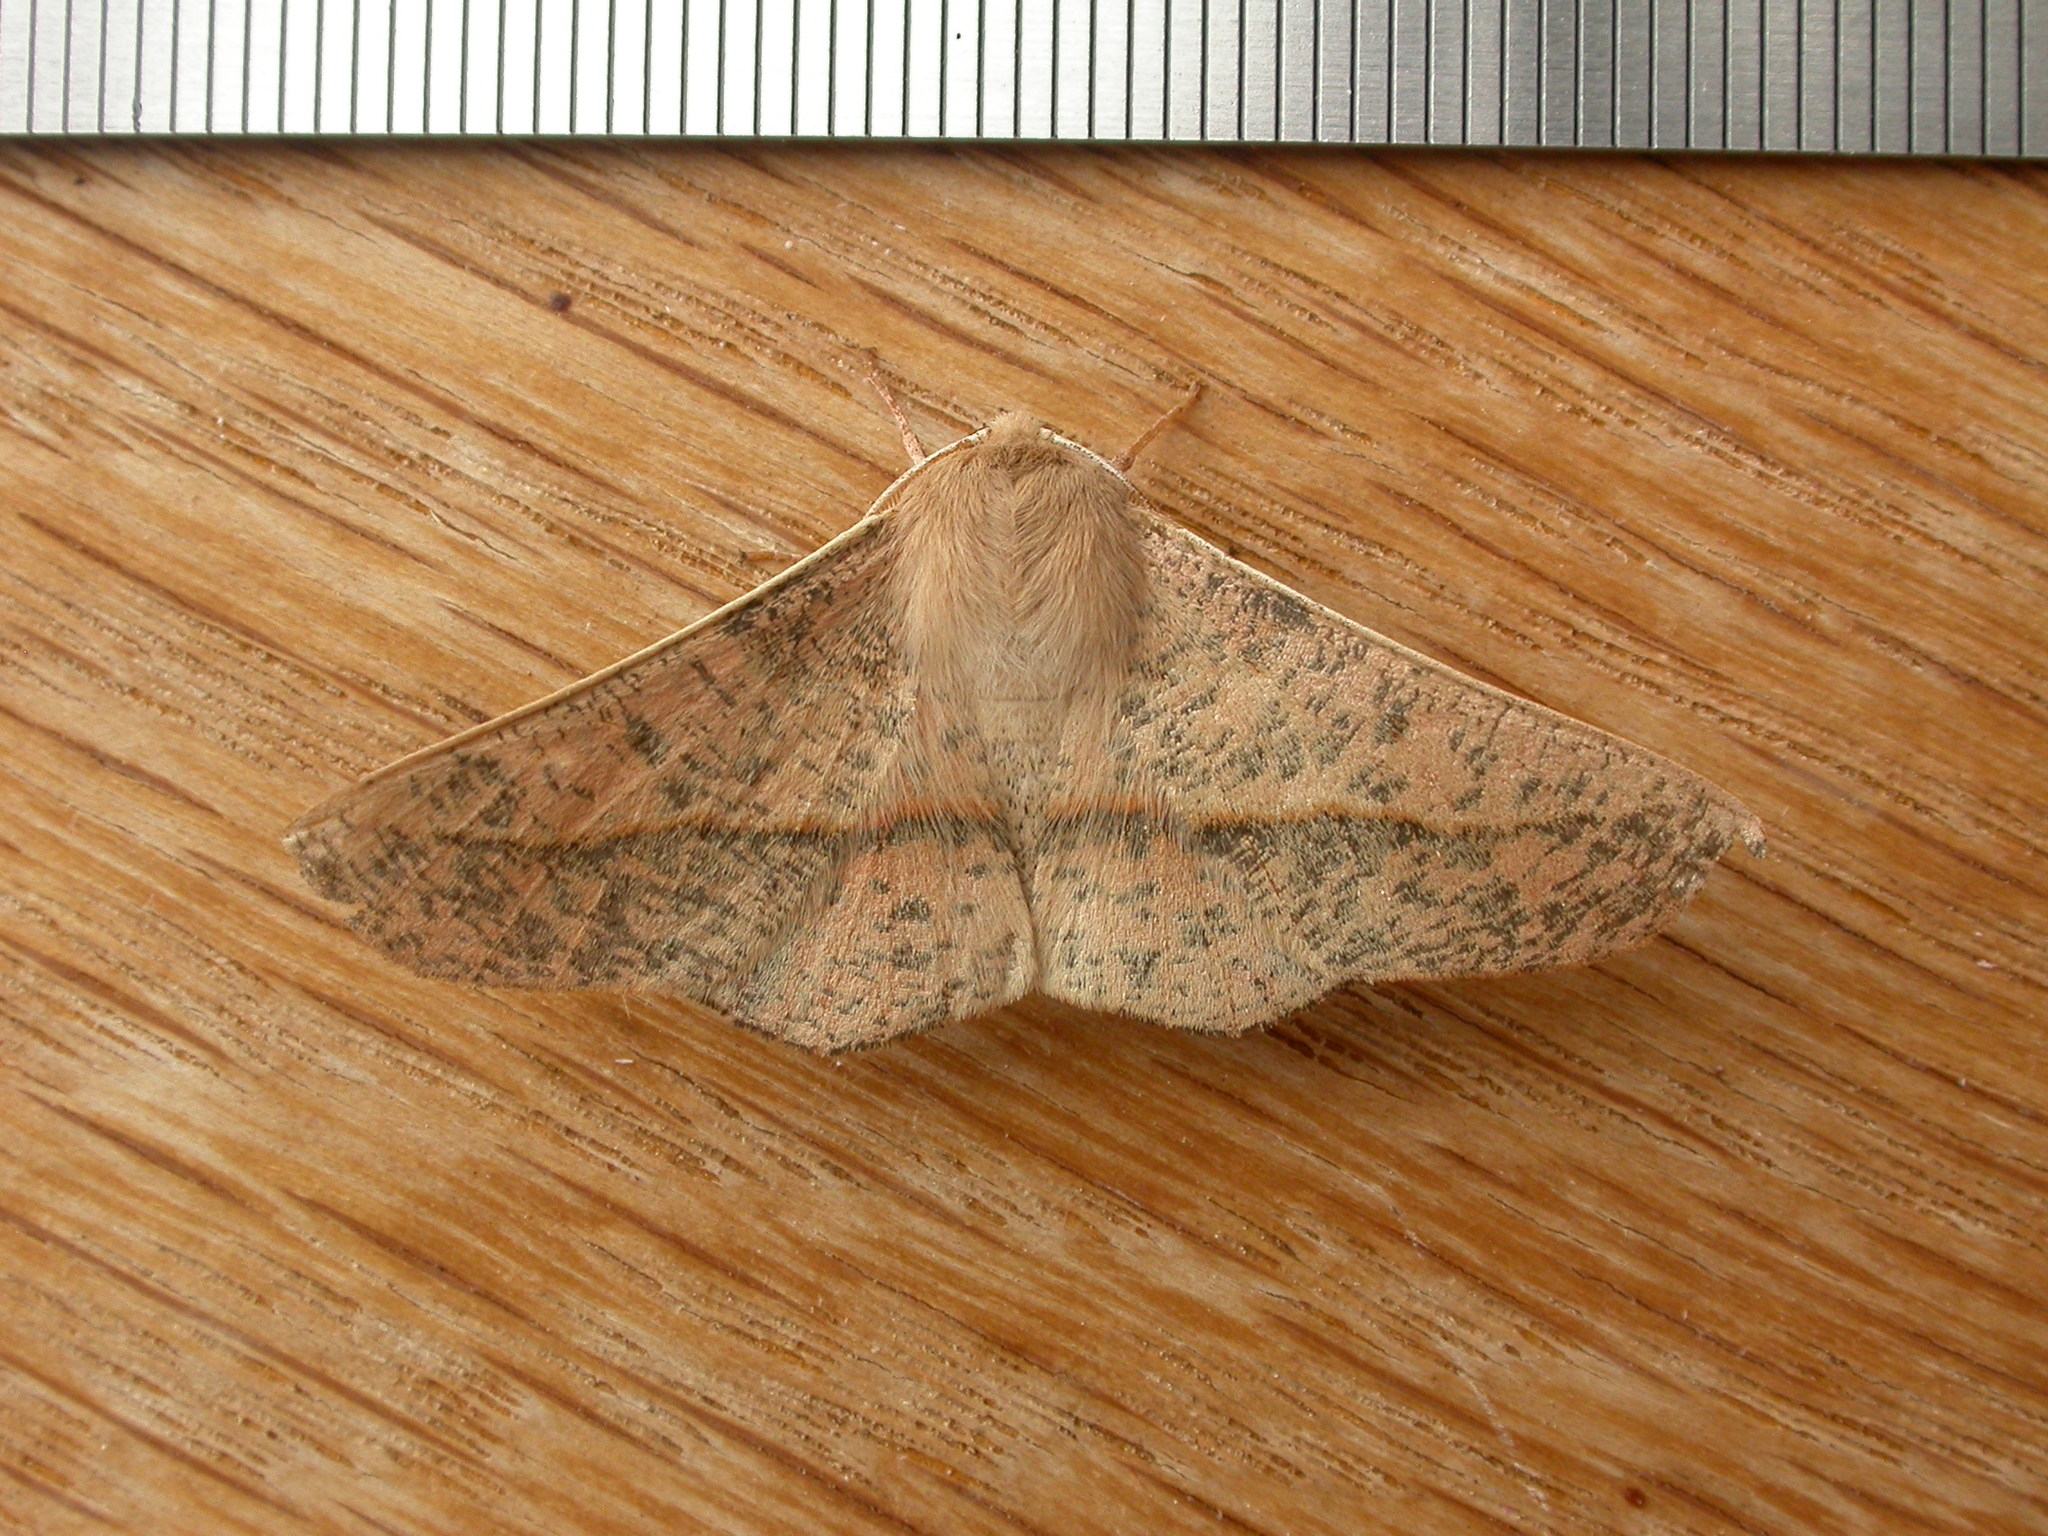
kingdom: Animalia
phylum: Arthropoda
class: Insecta
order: Lepidoptera
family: Geometridae
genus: Antictenia
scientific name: Antictenia punctunculus
